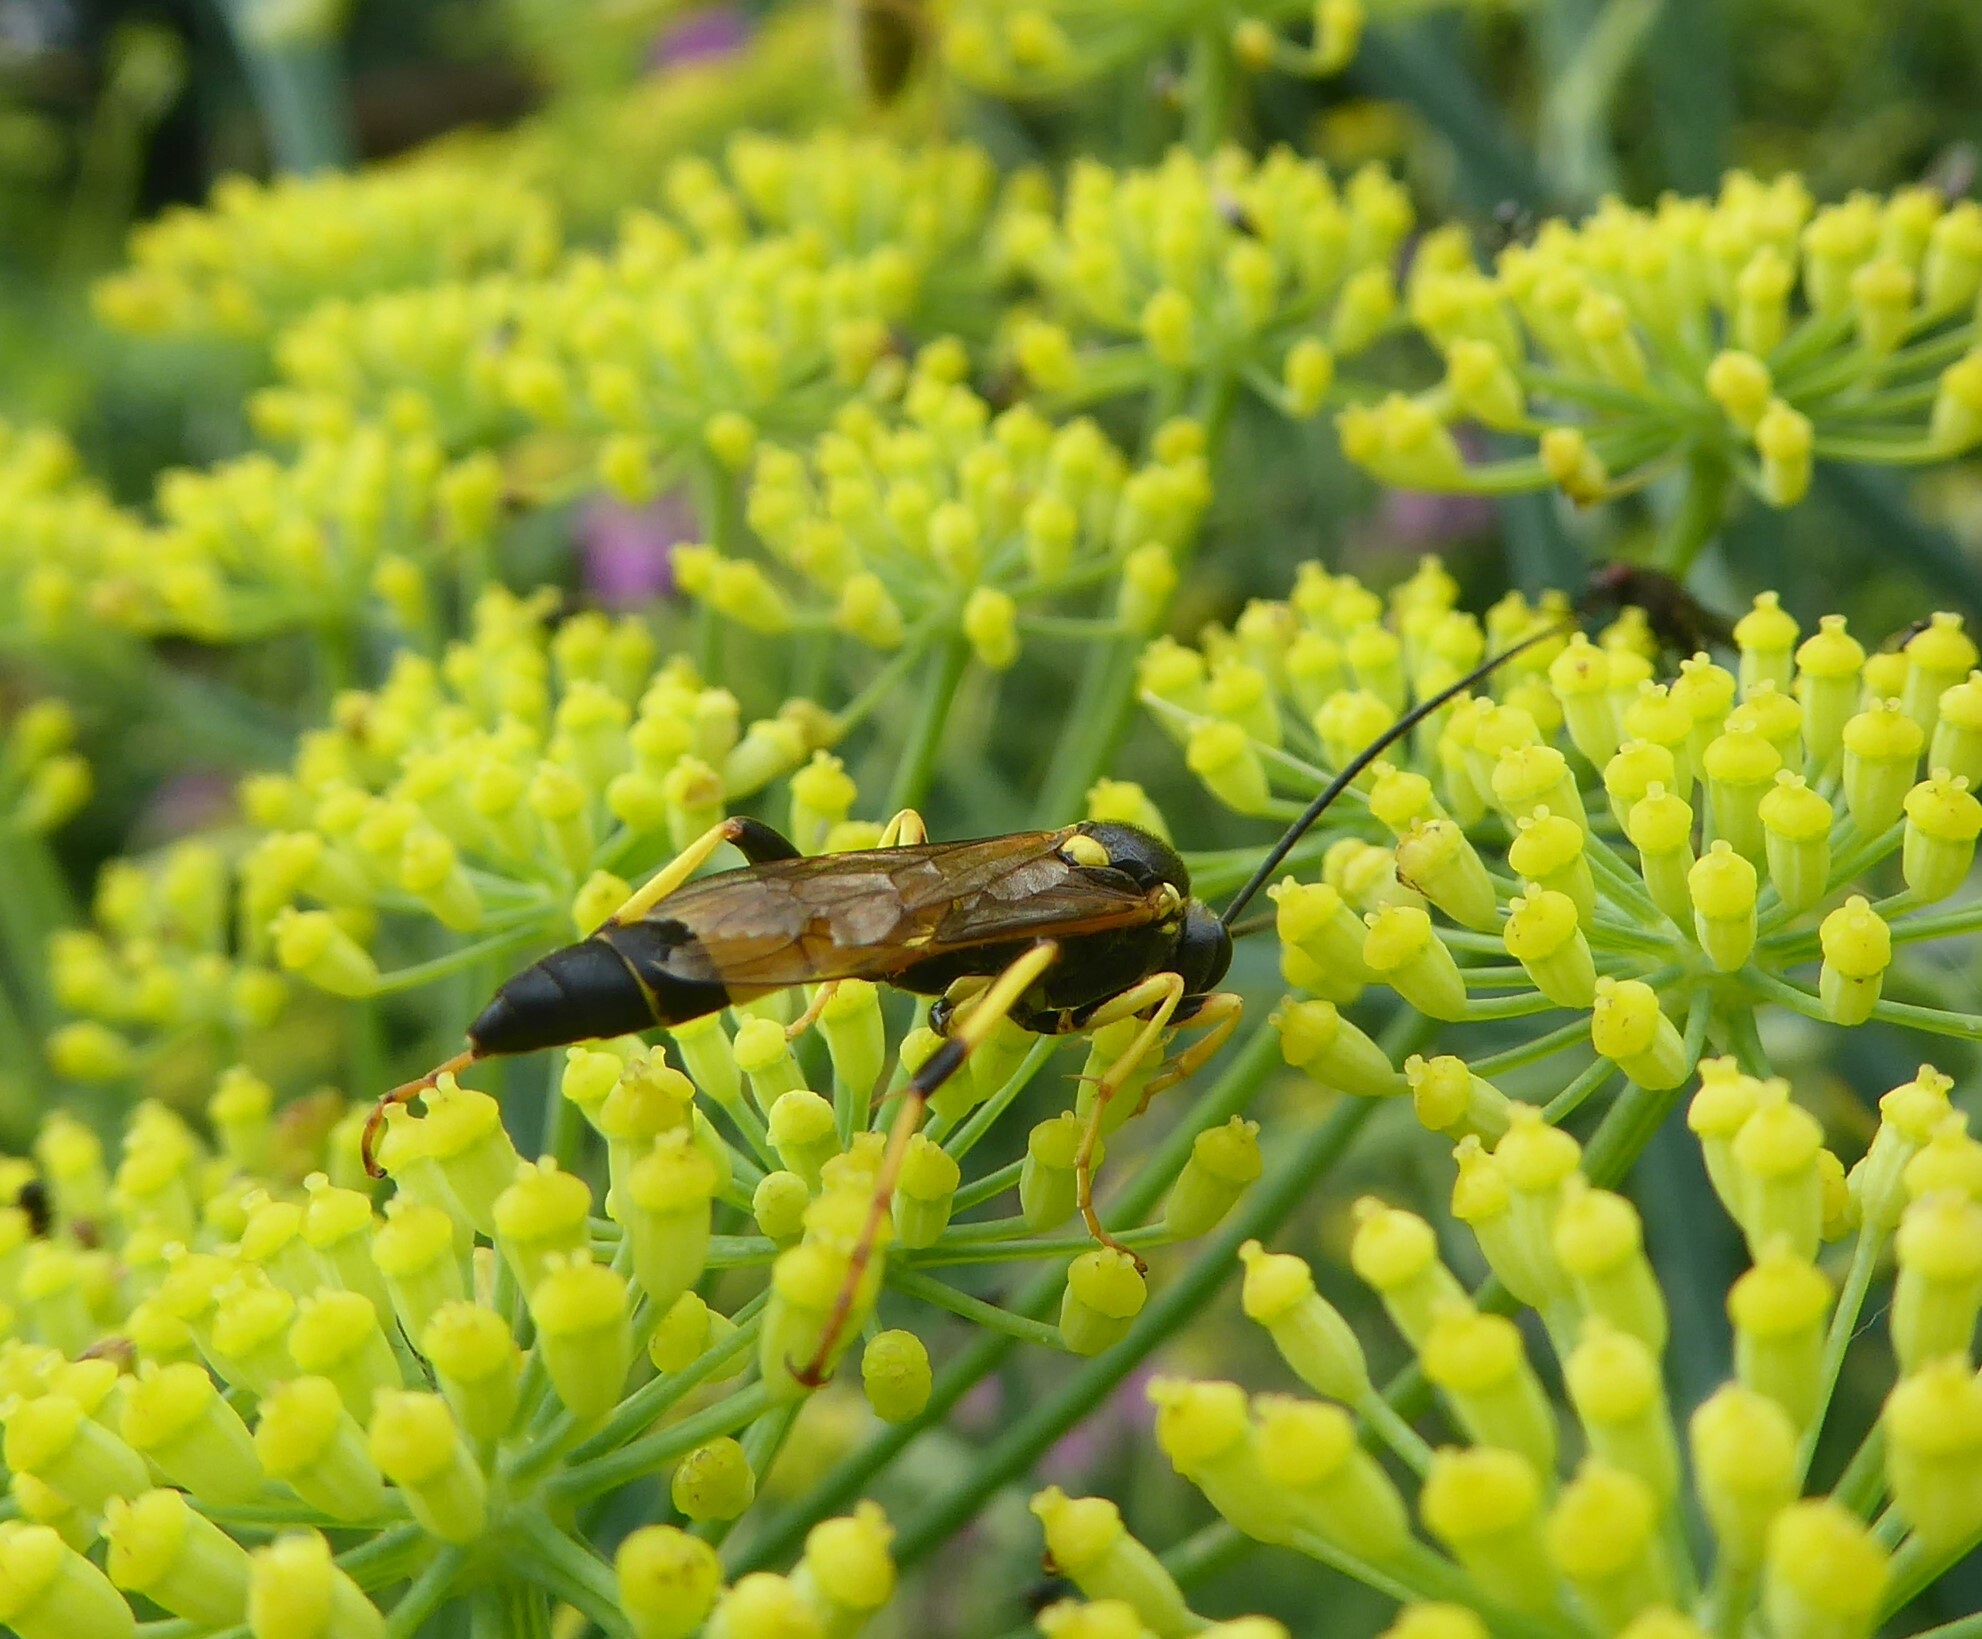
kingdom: Animalia
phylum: Arthropoda
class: Insecta
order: Hymenoptera
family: Ichneumonidae
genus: Ichneumon
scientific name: Ichneumon xanthorius
